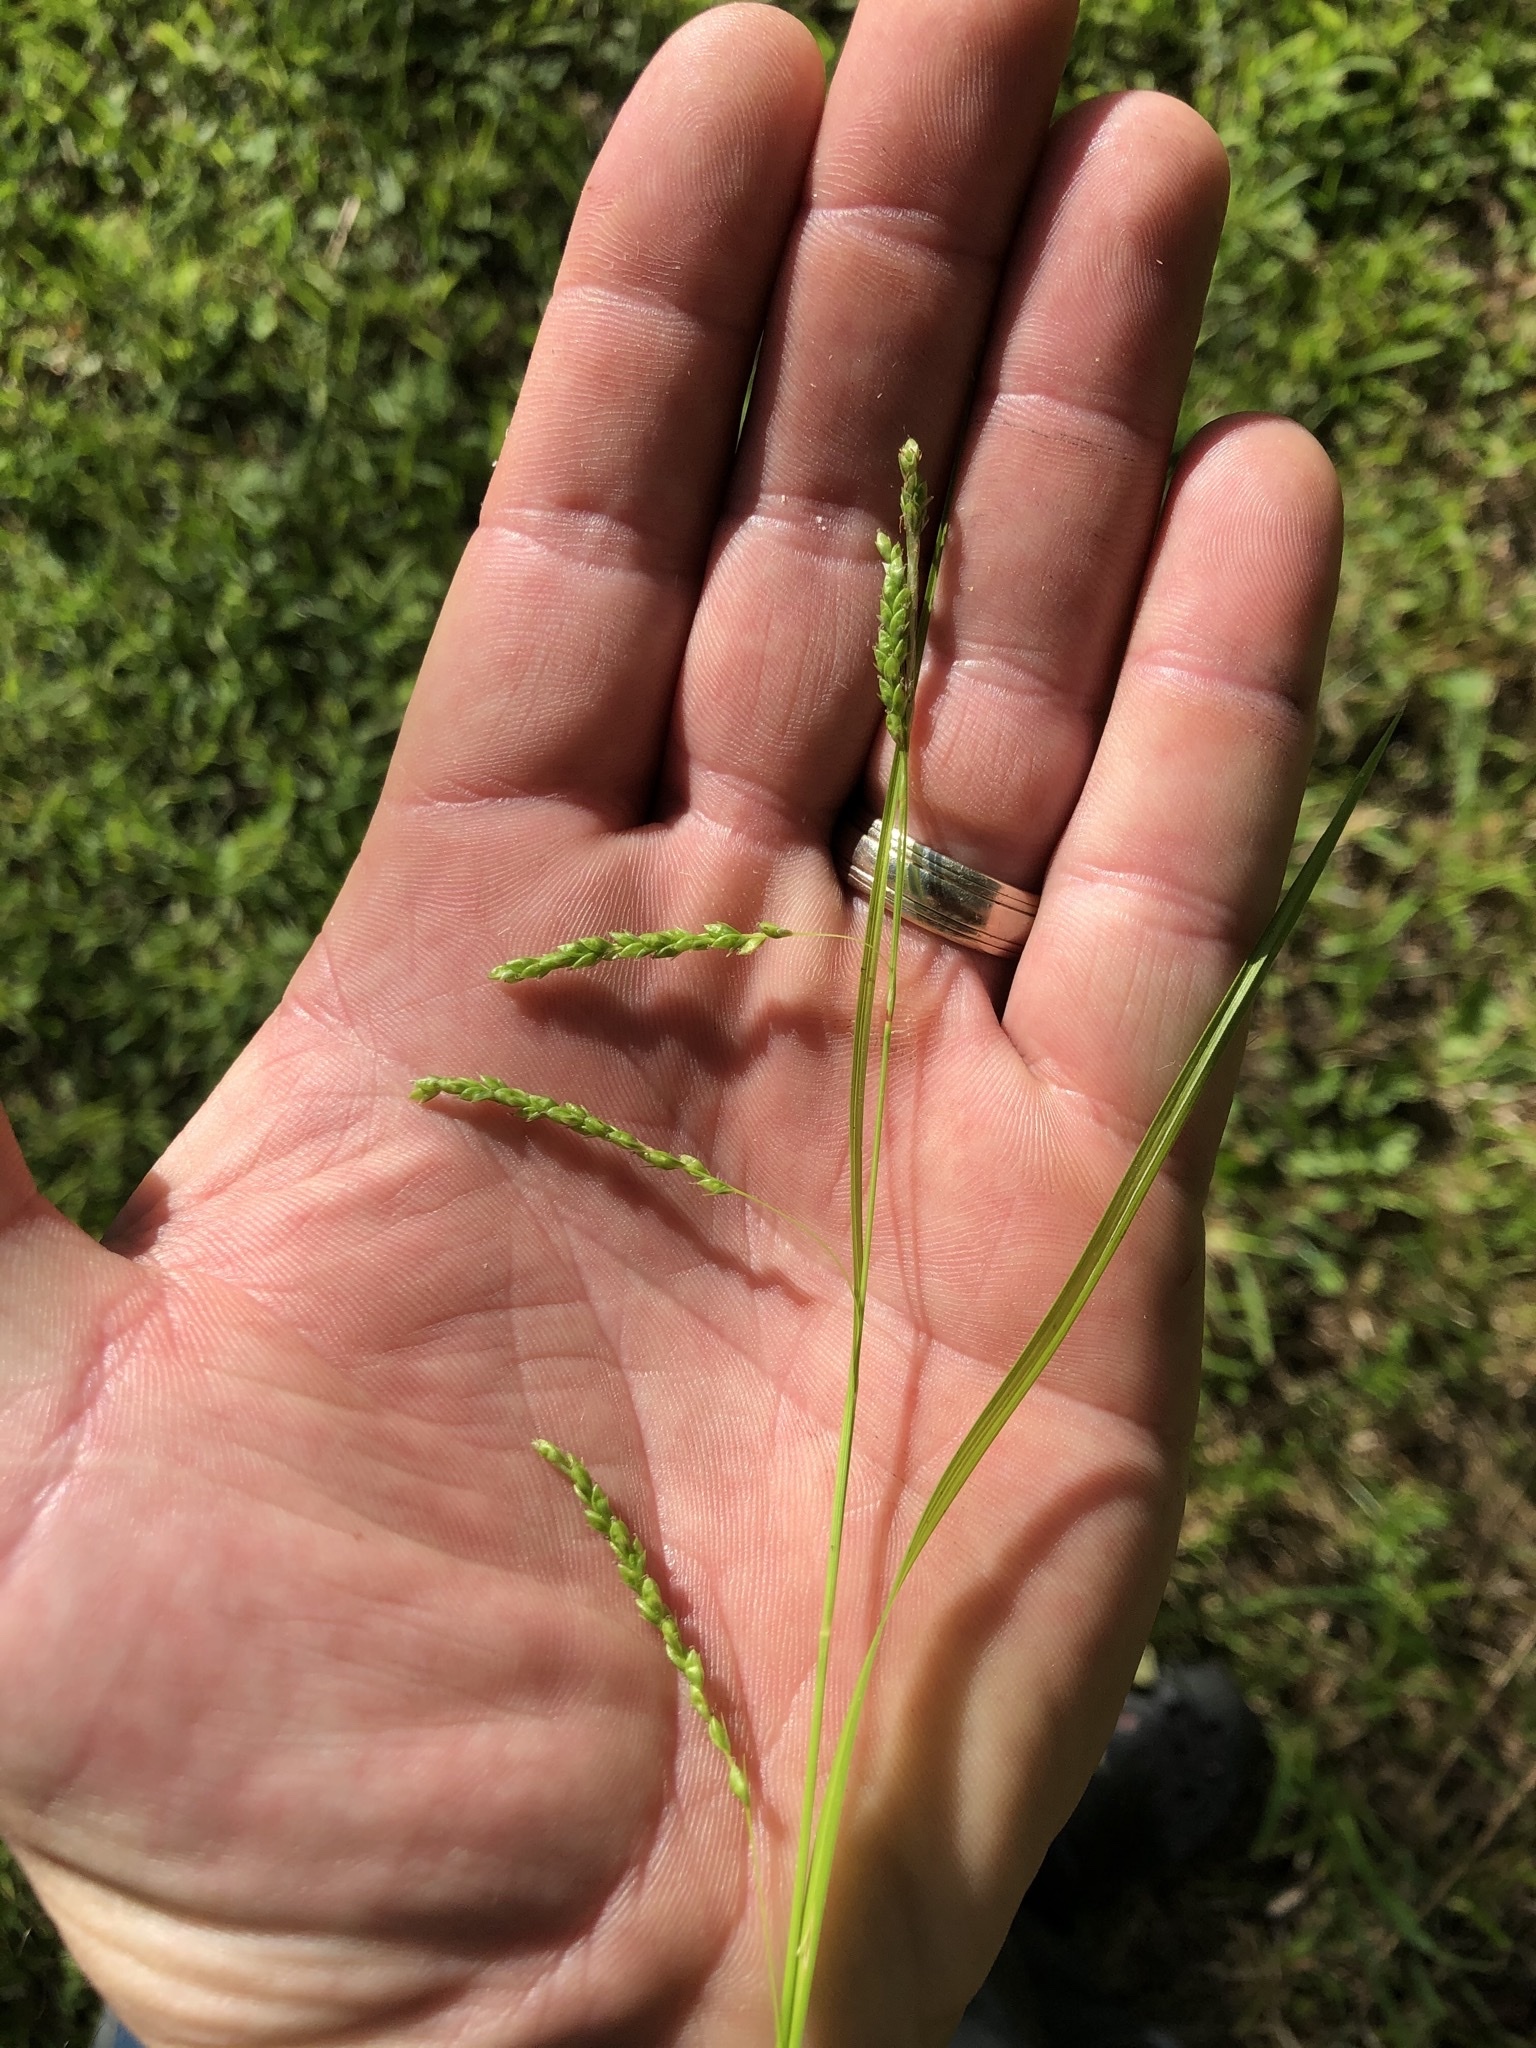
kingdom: Plantae
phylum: Tracheophyta
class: Liliopsida
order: Poales
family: Cyperaceae
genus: Carex
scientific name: Carex gracillima
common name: Graceful sedge
